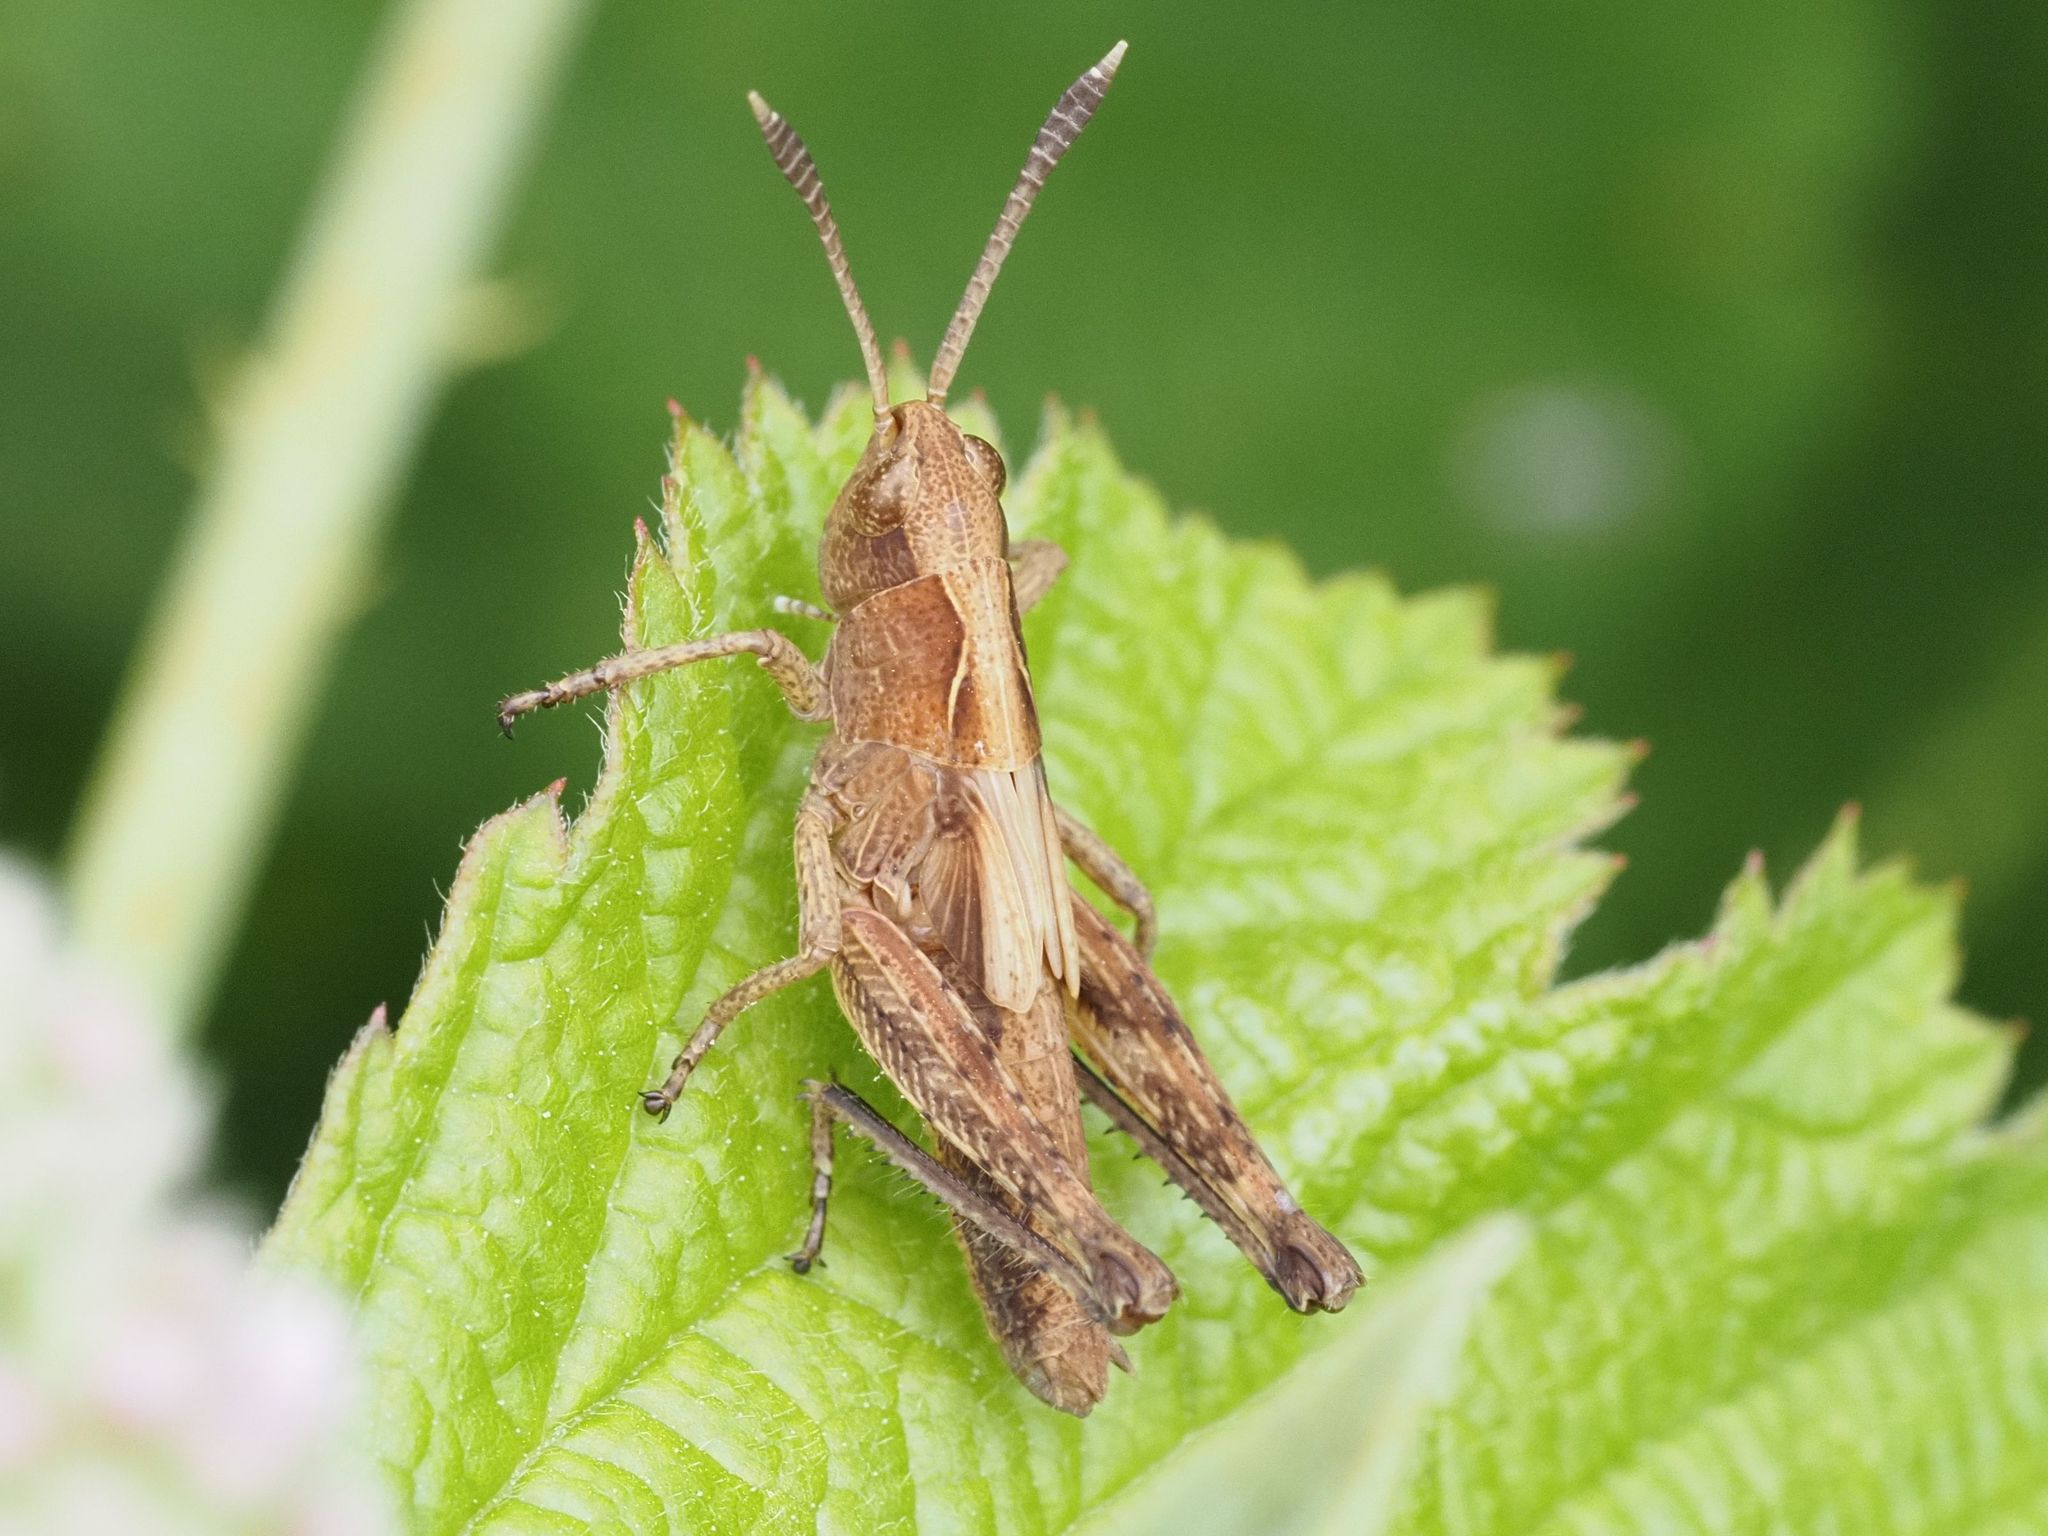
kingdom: Animalia
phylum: Arthropoda
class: Insecta
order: Orthoptera
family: Acrididae
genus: Gomphocerippus
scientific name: Gomphocerippus rufus
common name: Rufous grasshopper
